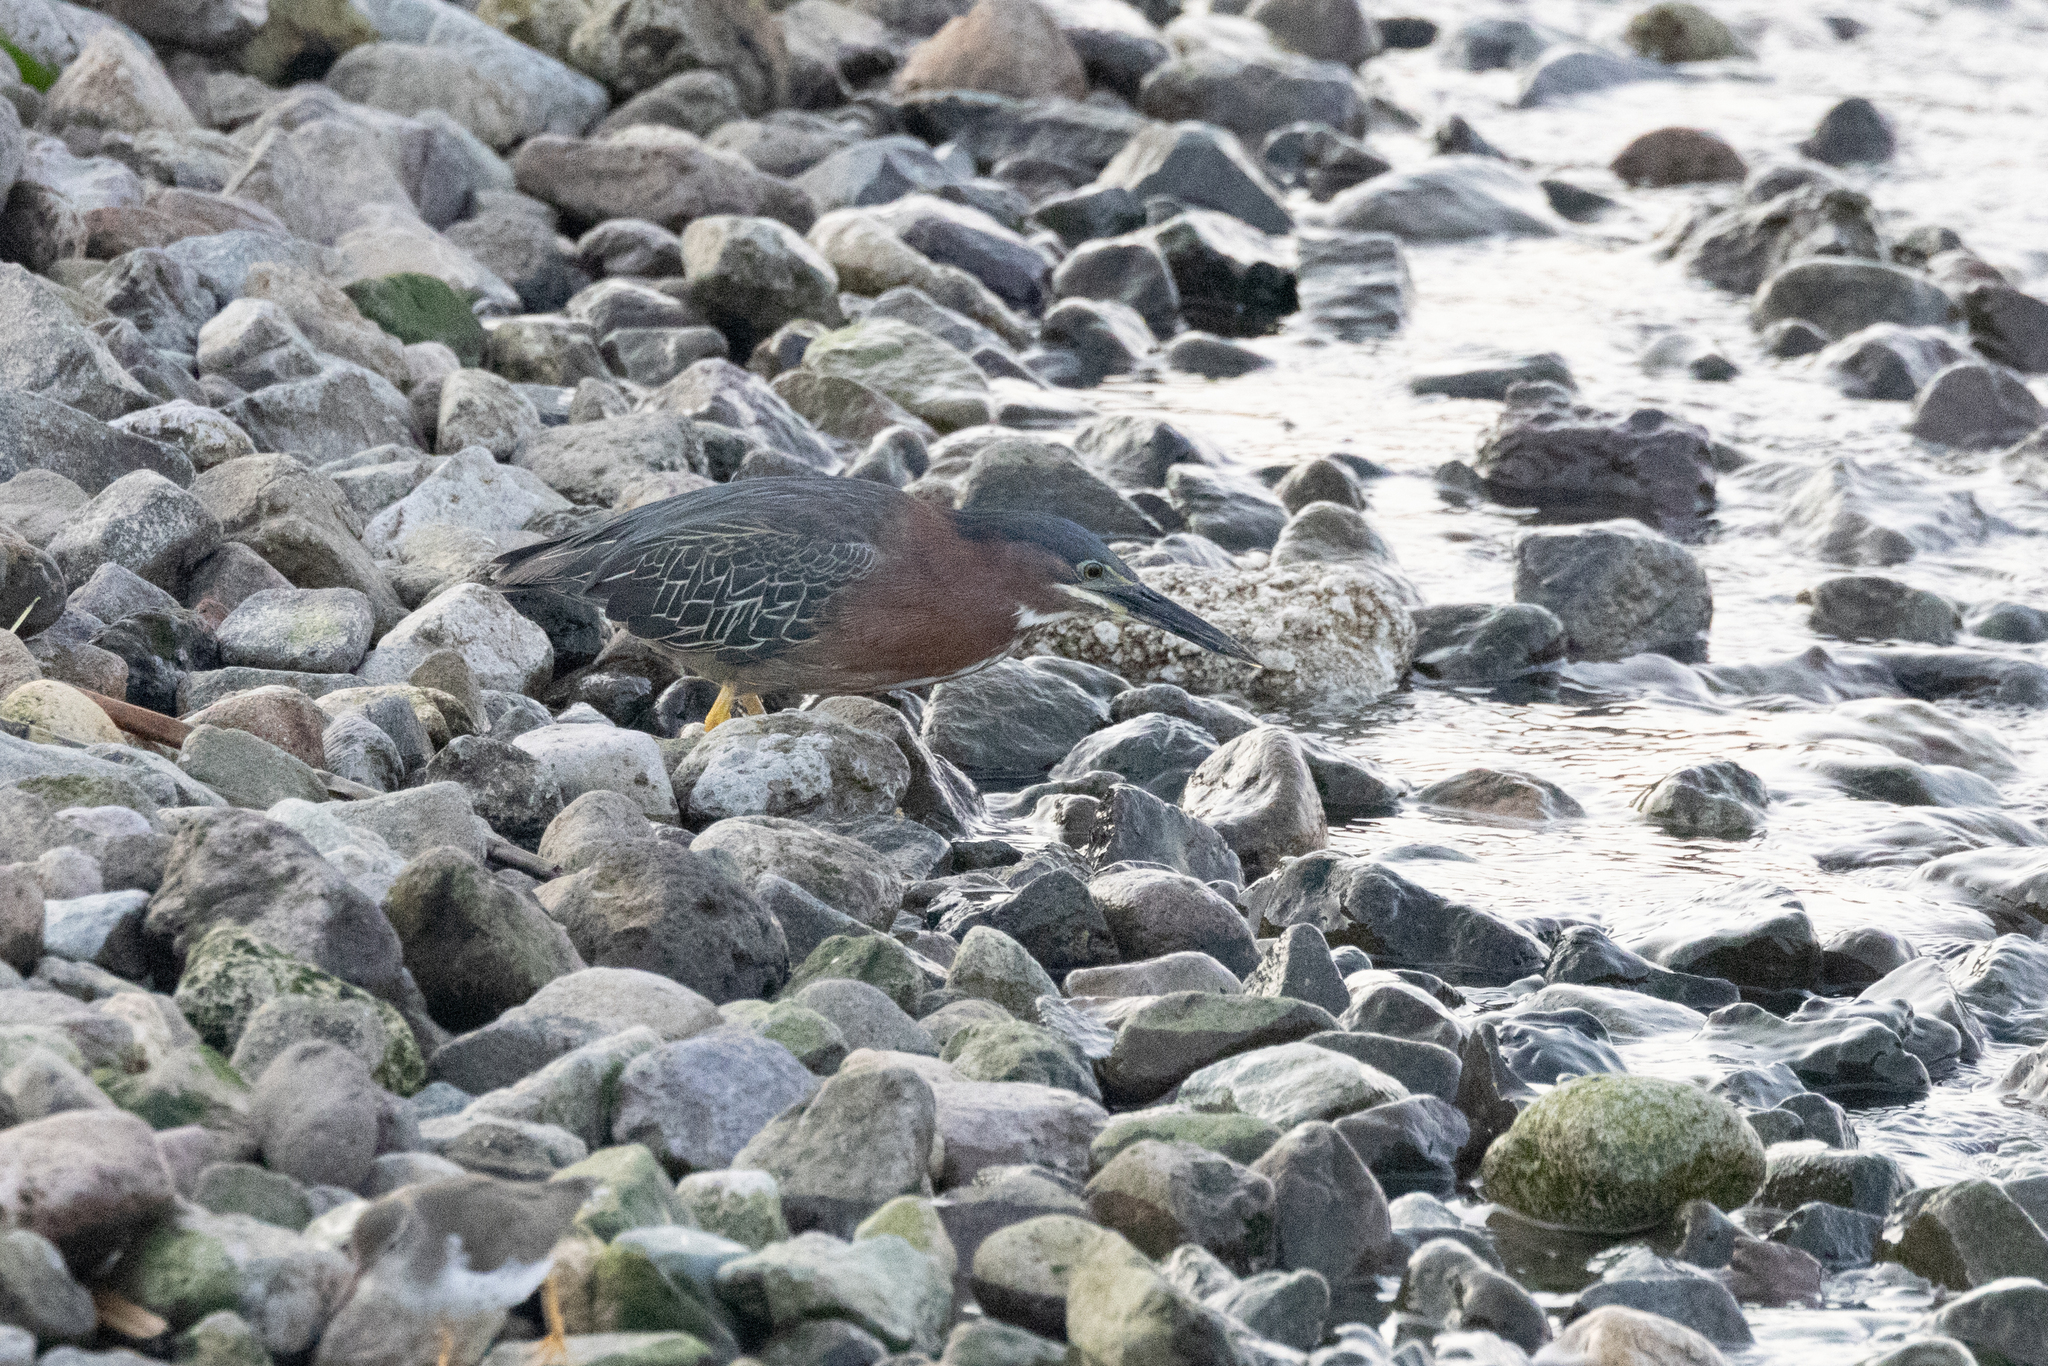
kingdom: Animalia
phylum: Chordata
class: Aves
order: Pelecaniformes
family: Ardeidae
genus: Butorides
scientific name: Butorides virescens
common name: Green heron
